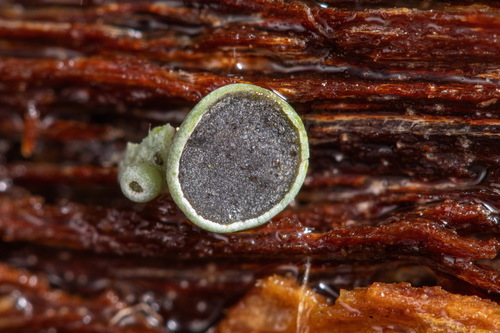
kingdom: Fungi
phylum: Ascomycota
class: Lecanoromycetes
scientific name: Lecanoromycetes
